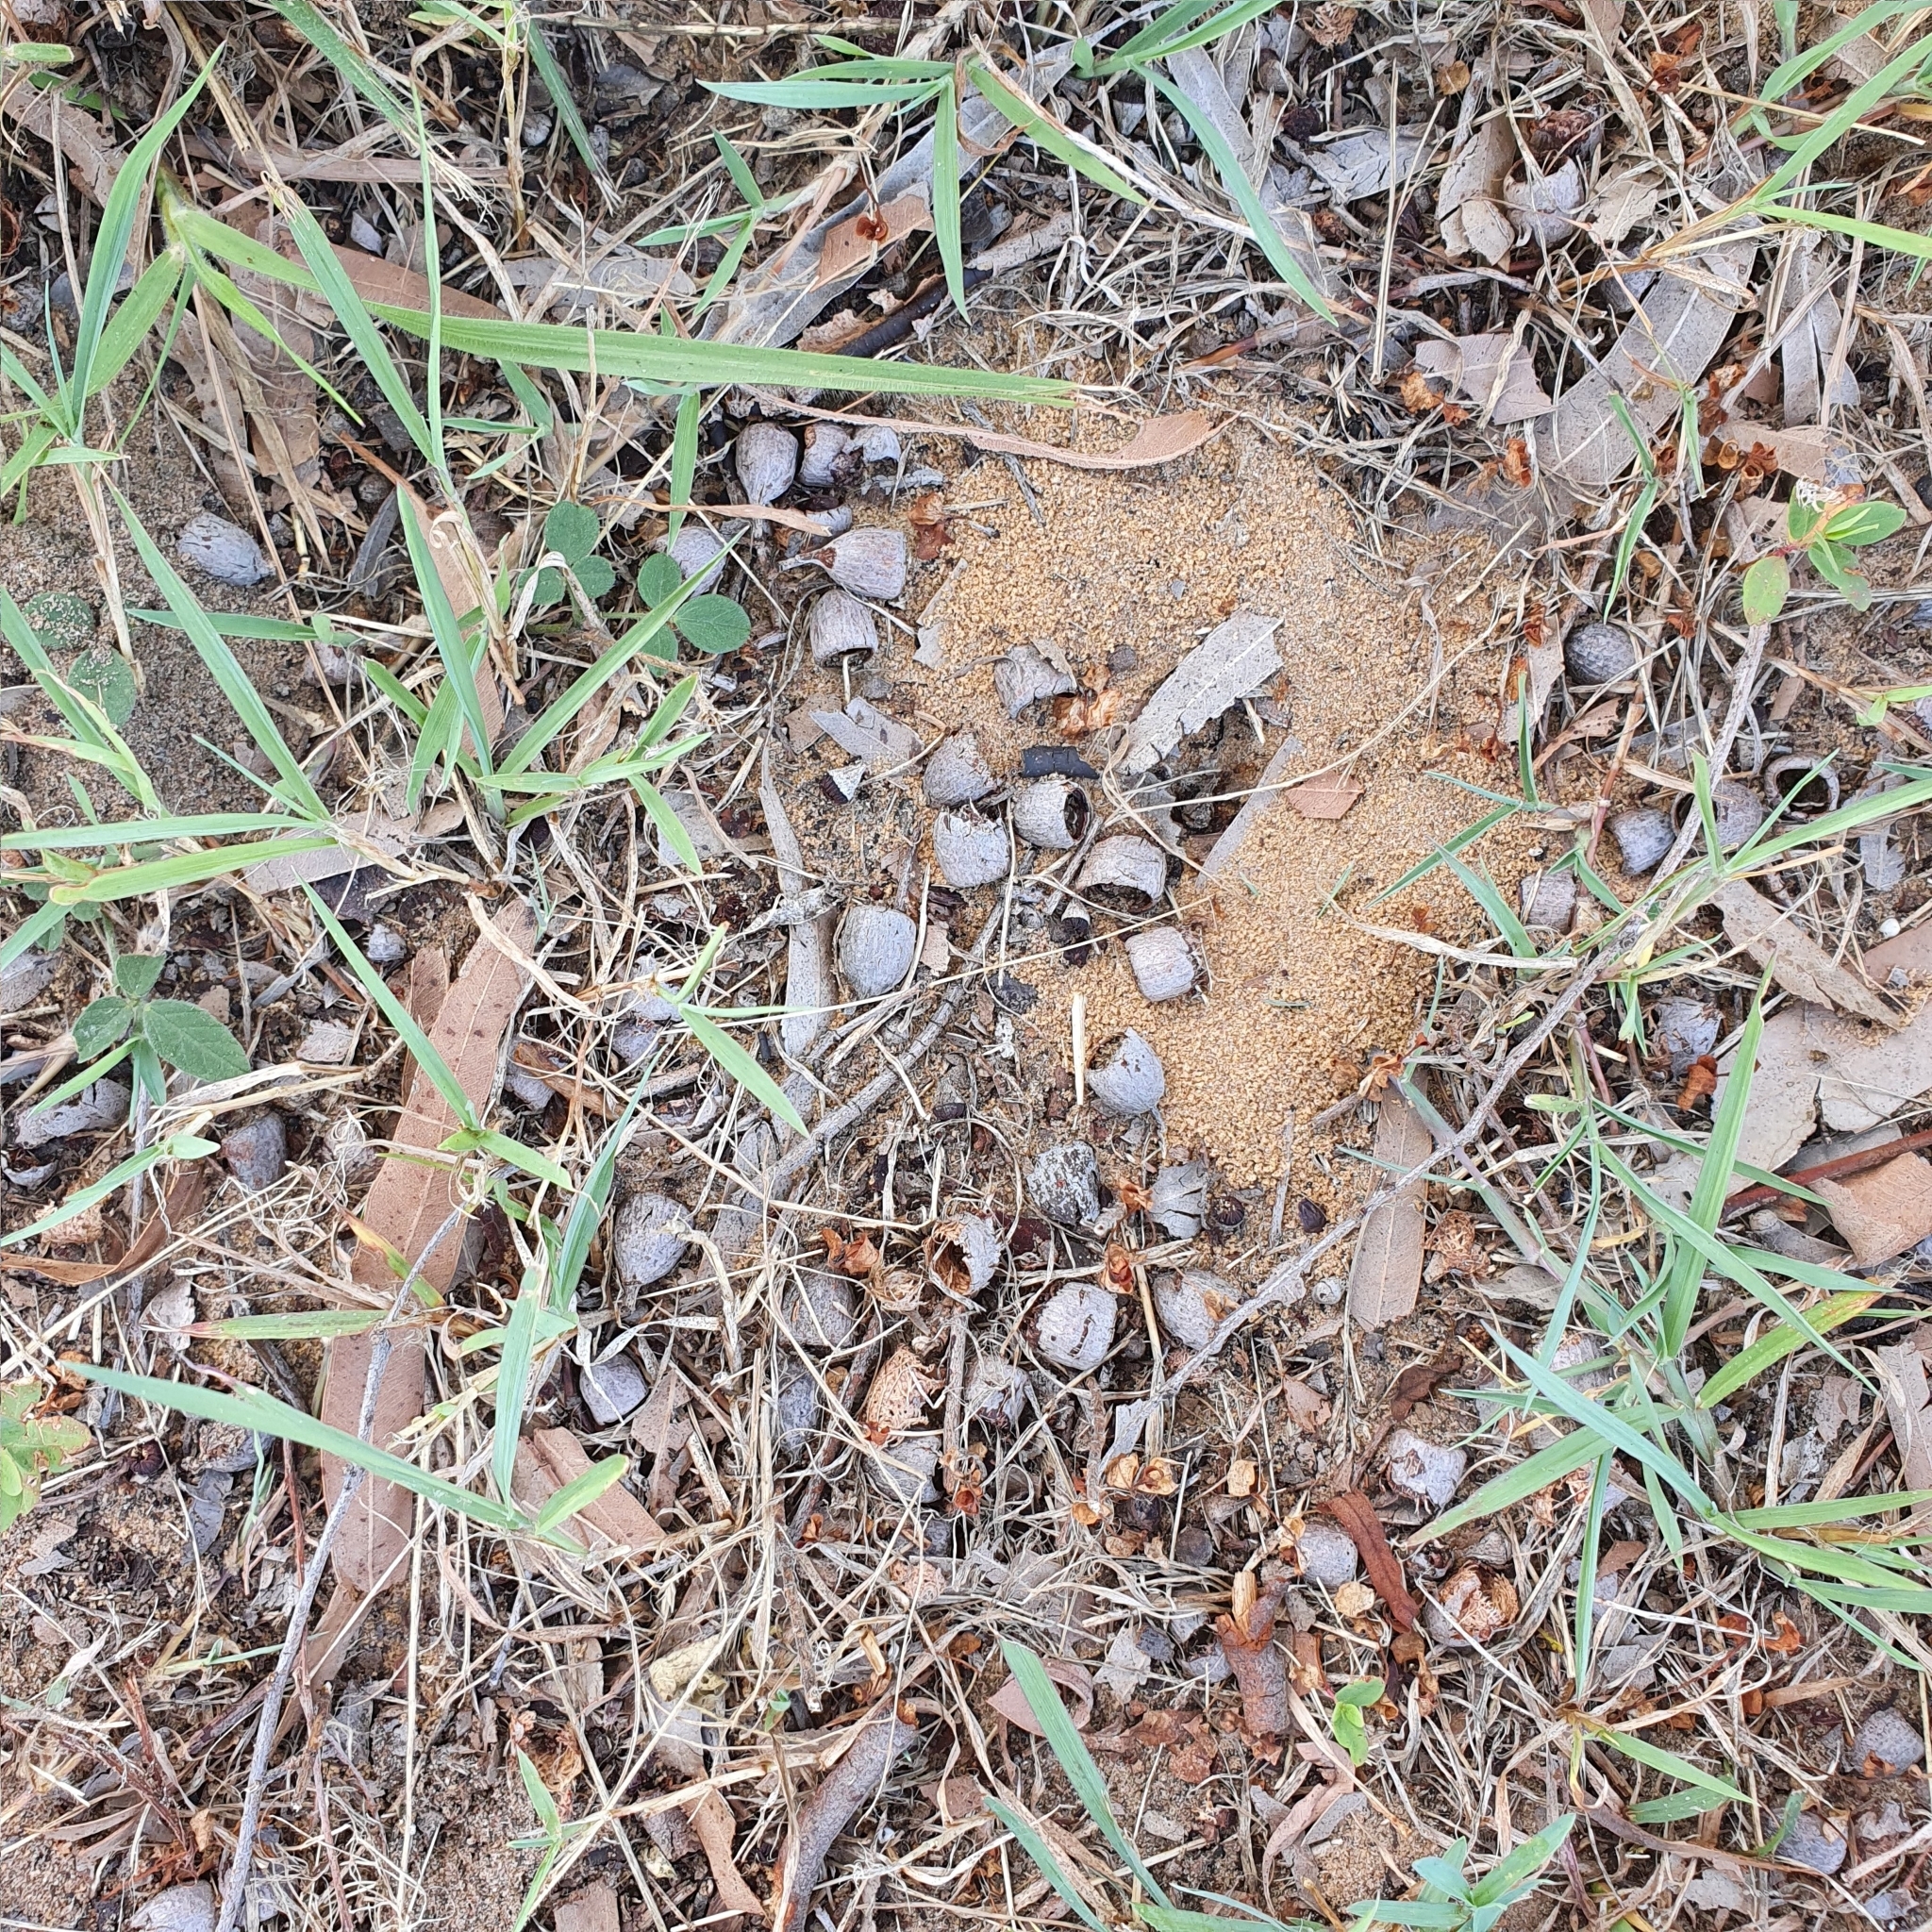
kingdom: Plantae
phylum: Tracheophyta
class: Magnoliopsida
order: Myrtales
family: Myrtaceae
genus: Corymbia
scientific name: Corymbia tessellaris
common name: Carbeen
